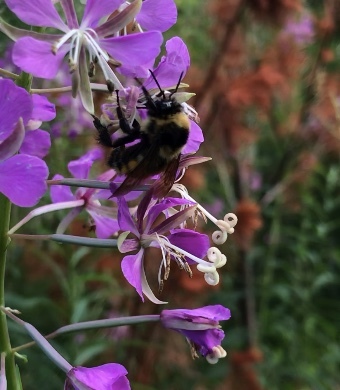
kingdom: Animalia
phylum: Arthropoda
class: Insecta
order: Hymenoptera
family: Apidae
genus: Bombus
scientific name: Bombus ternarius
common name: Tri-colored bumble bee
